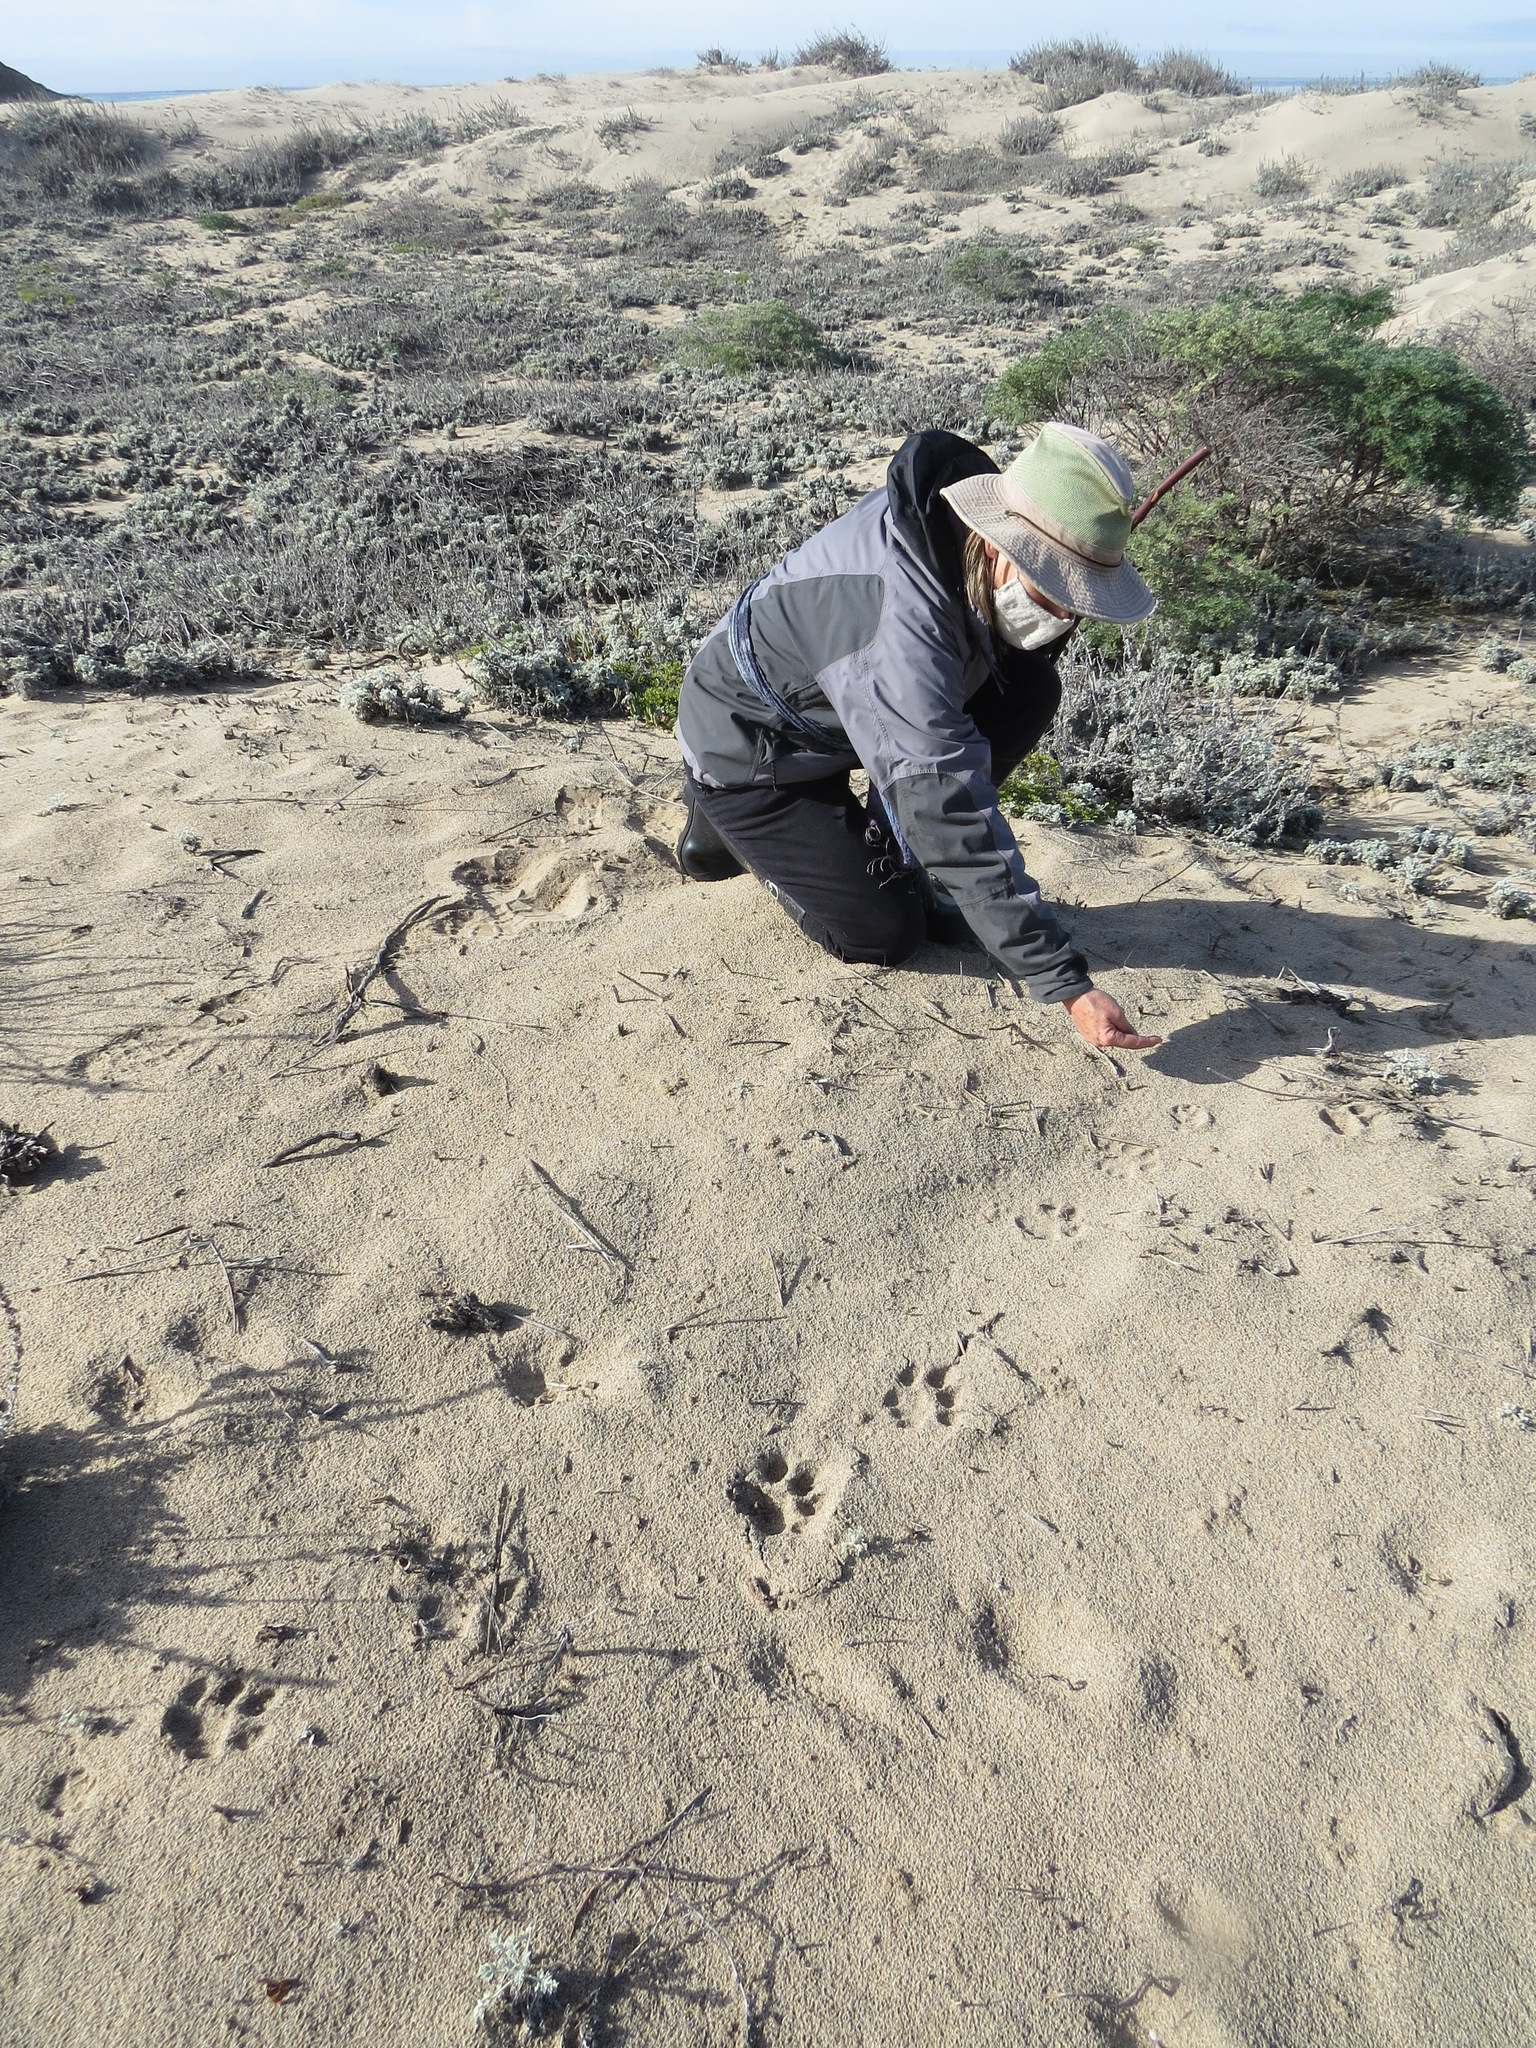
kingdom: Animalia
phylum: Chordata
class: Mammalia
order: Carnivora
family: Felidae
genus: Puma
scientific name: Puma concolor
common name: Puma
